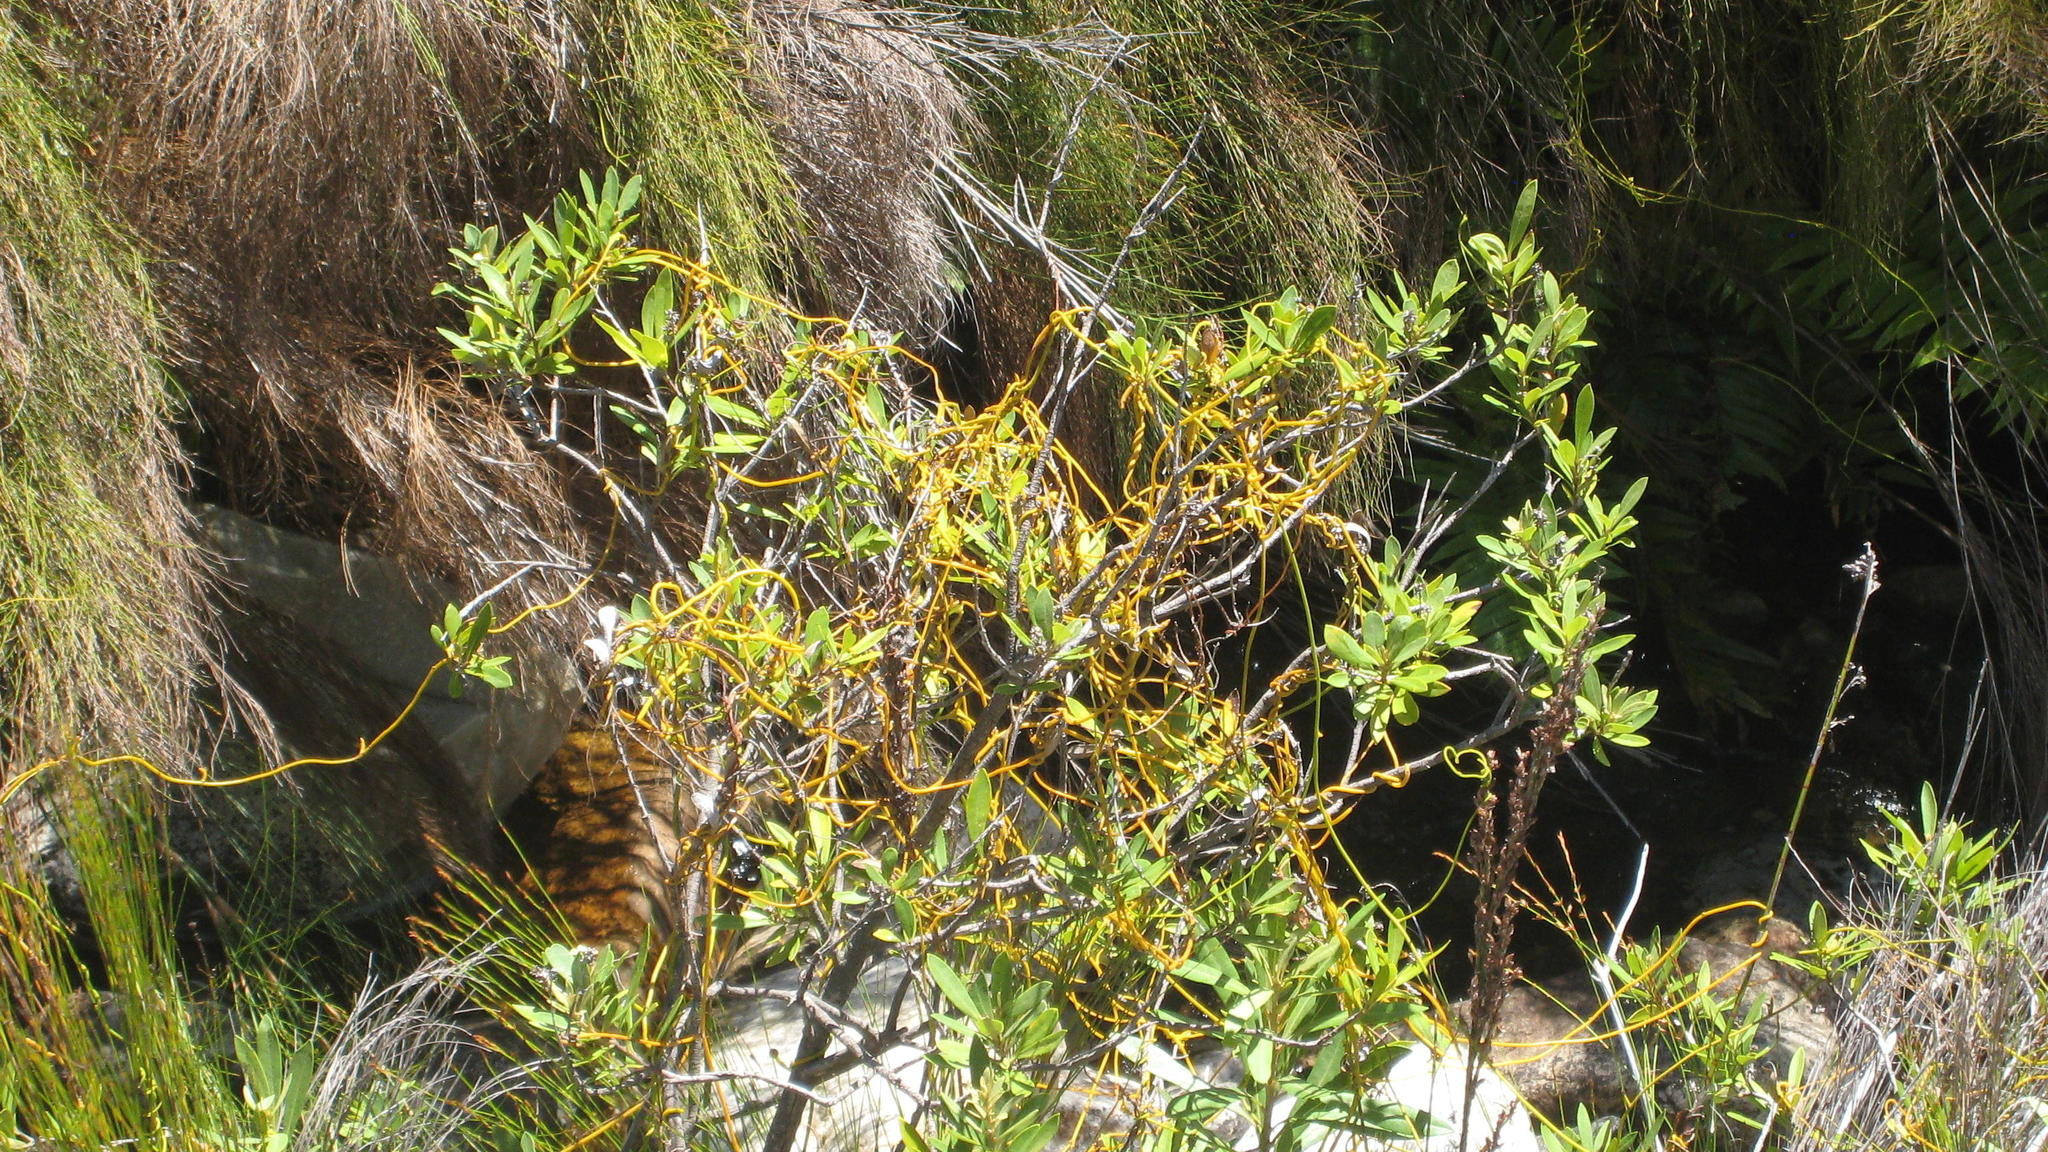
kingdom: Plantae
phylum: Tracheophyta
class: Magnoliopsida
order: Laurales
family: Lauraceae
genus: Cassytha
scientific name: Cassytha ciliolata
